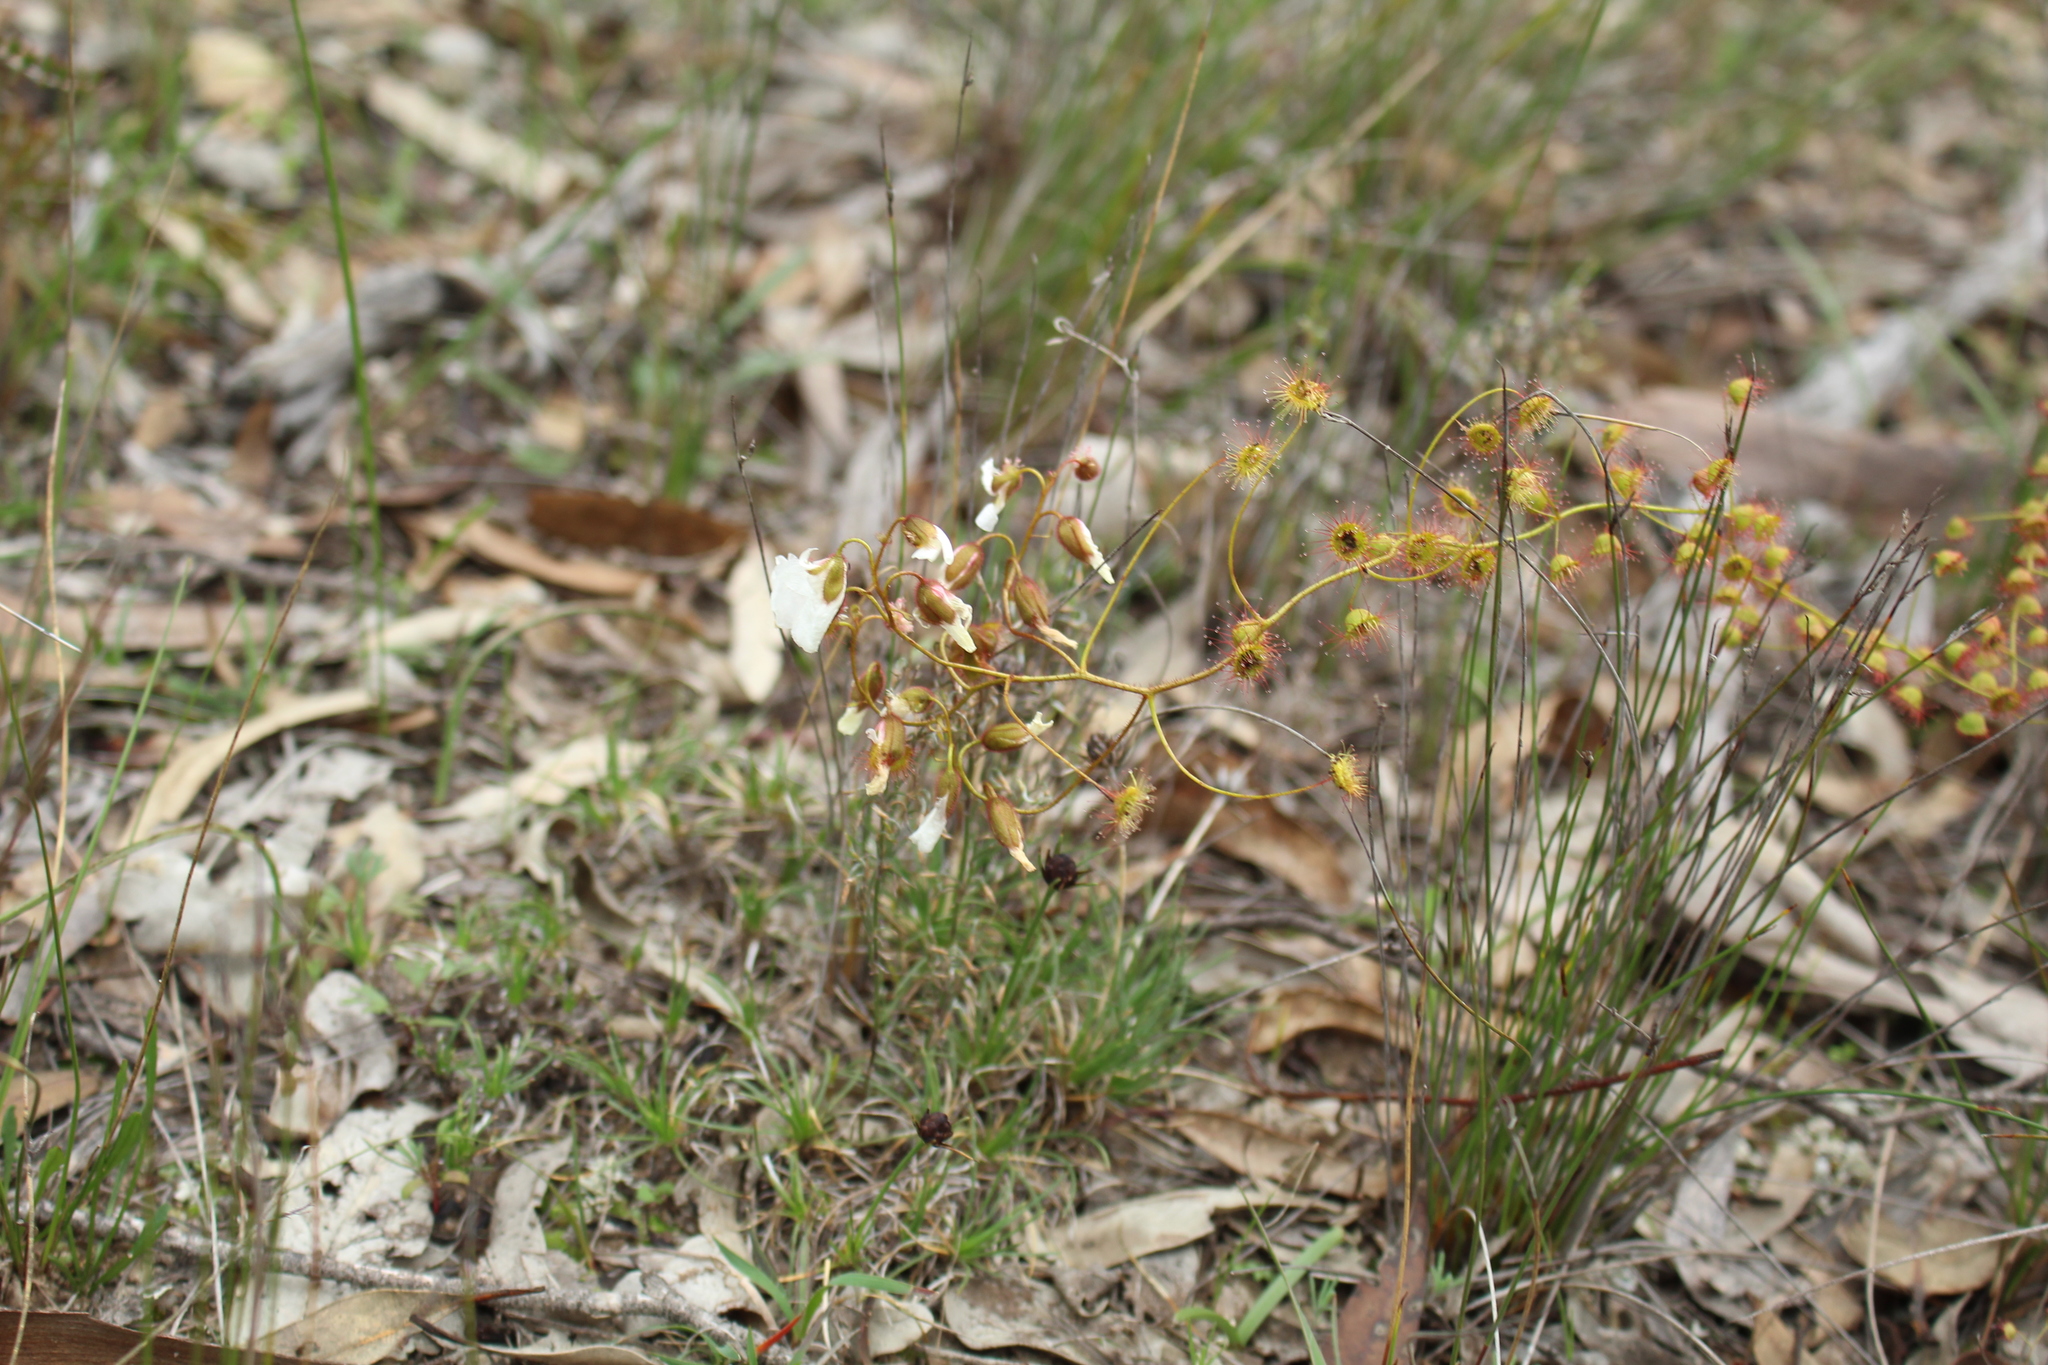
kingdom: Plantae
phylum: Tracheophyta
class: Magnoliopsida
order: Caryophyllales
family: Droseraceae
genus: Drosera
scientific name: Drosera macrantha
